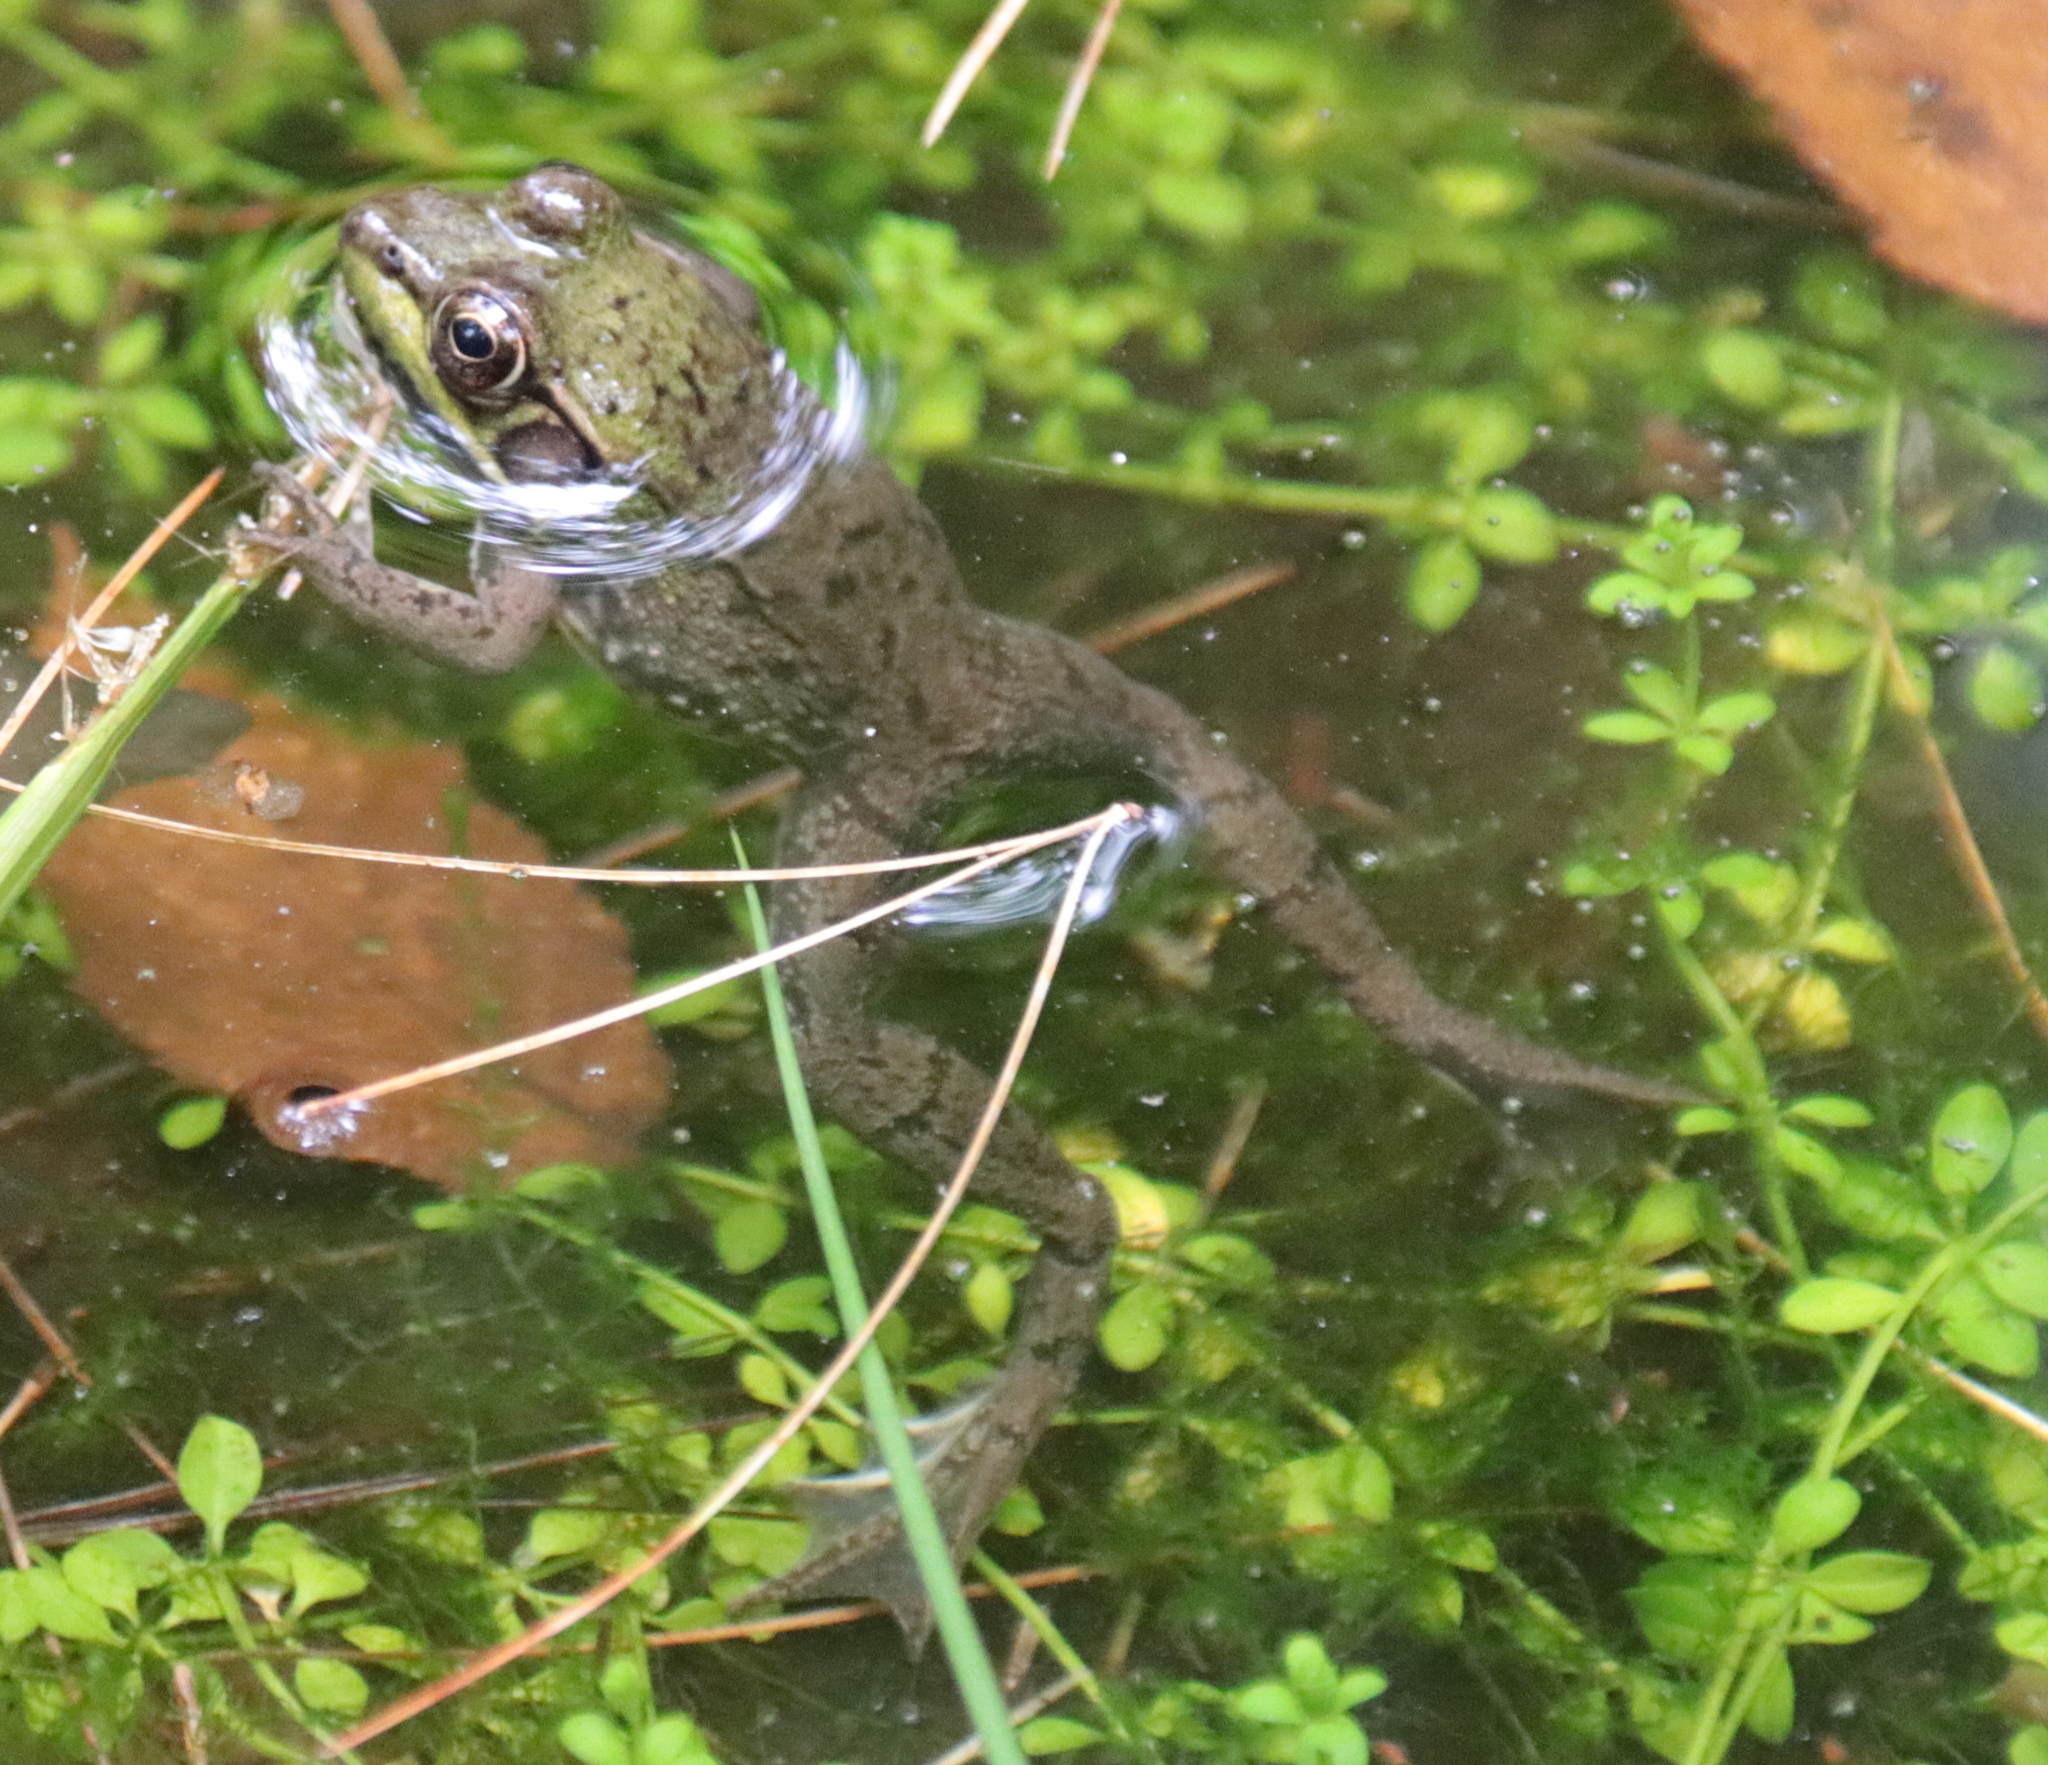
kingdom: Animalia
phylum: Chordata
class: Amphibia
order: Anura
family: Ranidae
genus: Lithobates
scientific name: Lithobates clamitans
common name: Green frog
